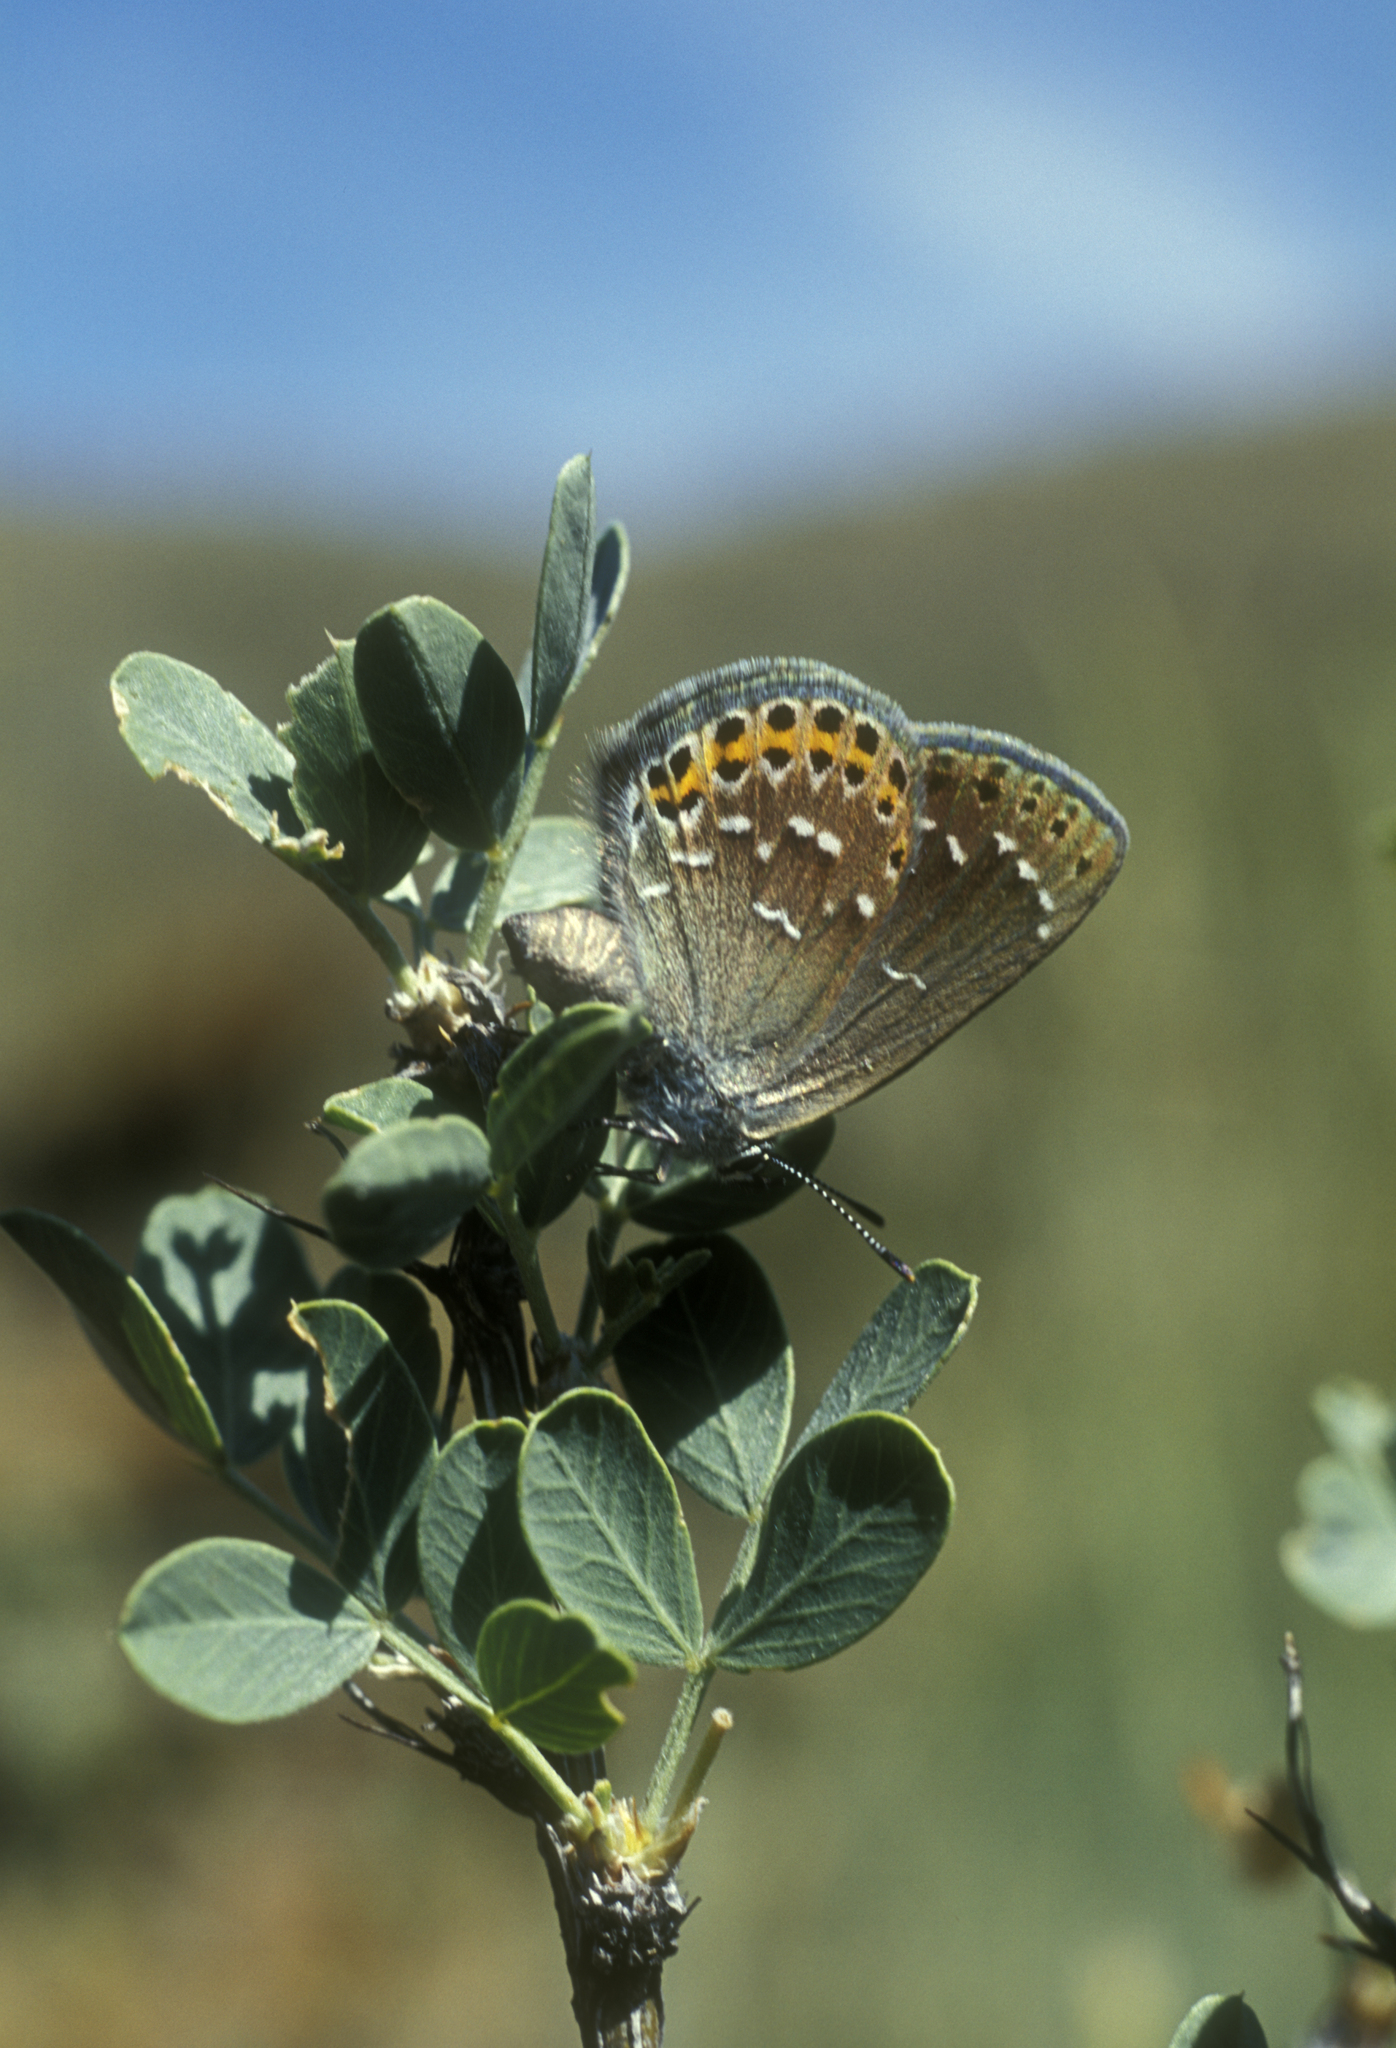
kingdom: Animalia
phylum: Arthropoda
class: Insecta
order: Lepidoptera
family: Lycaenidae
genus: Neolycaena
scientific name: Neolycaena
